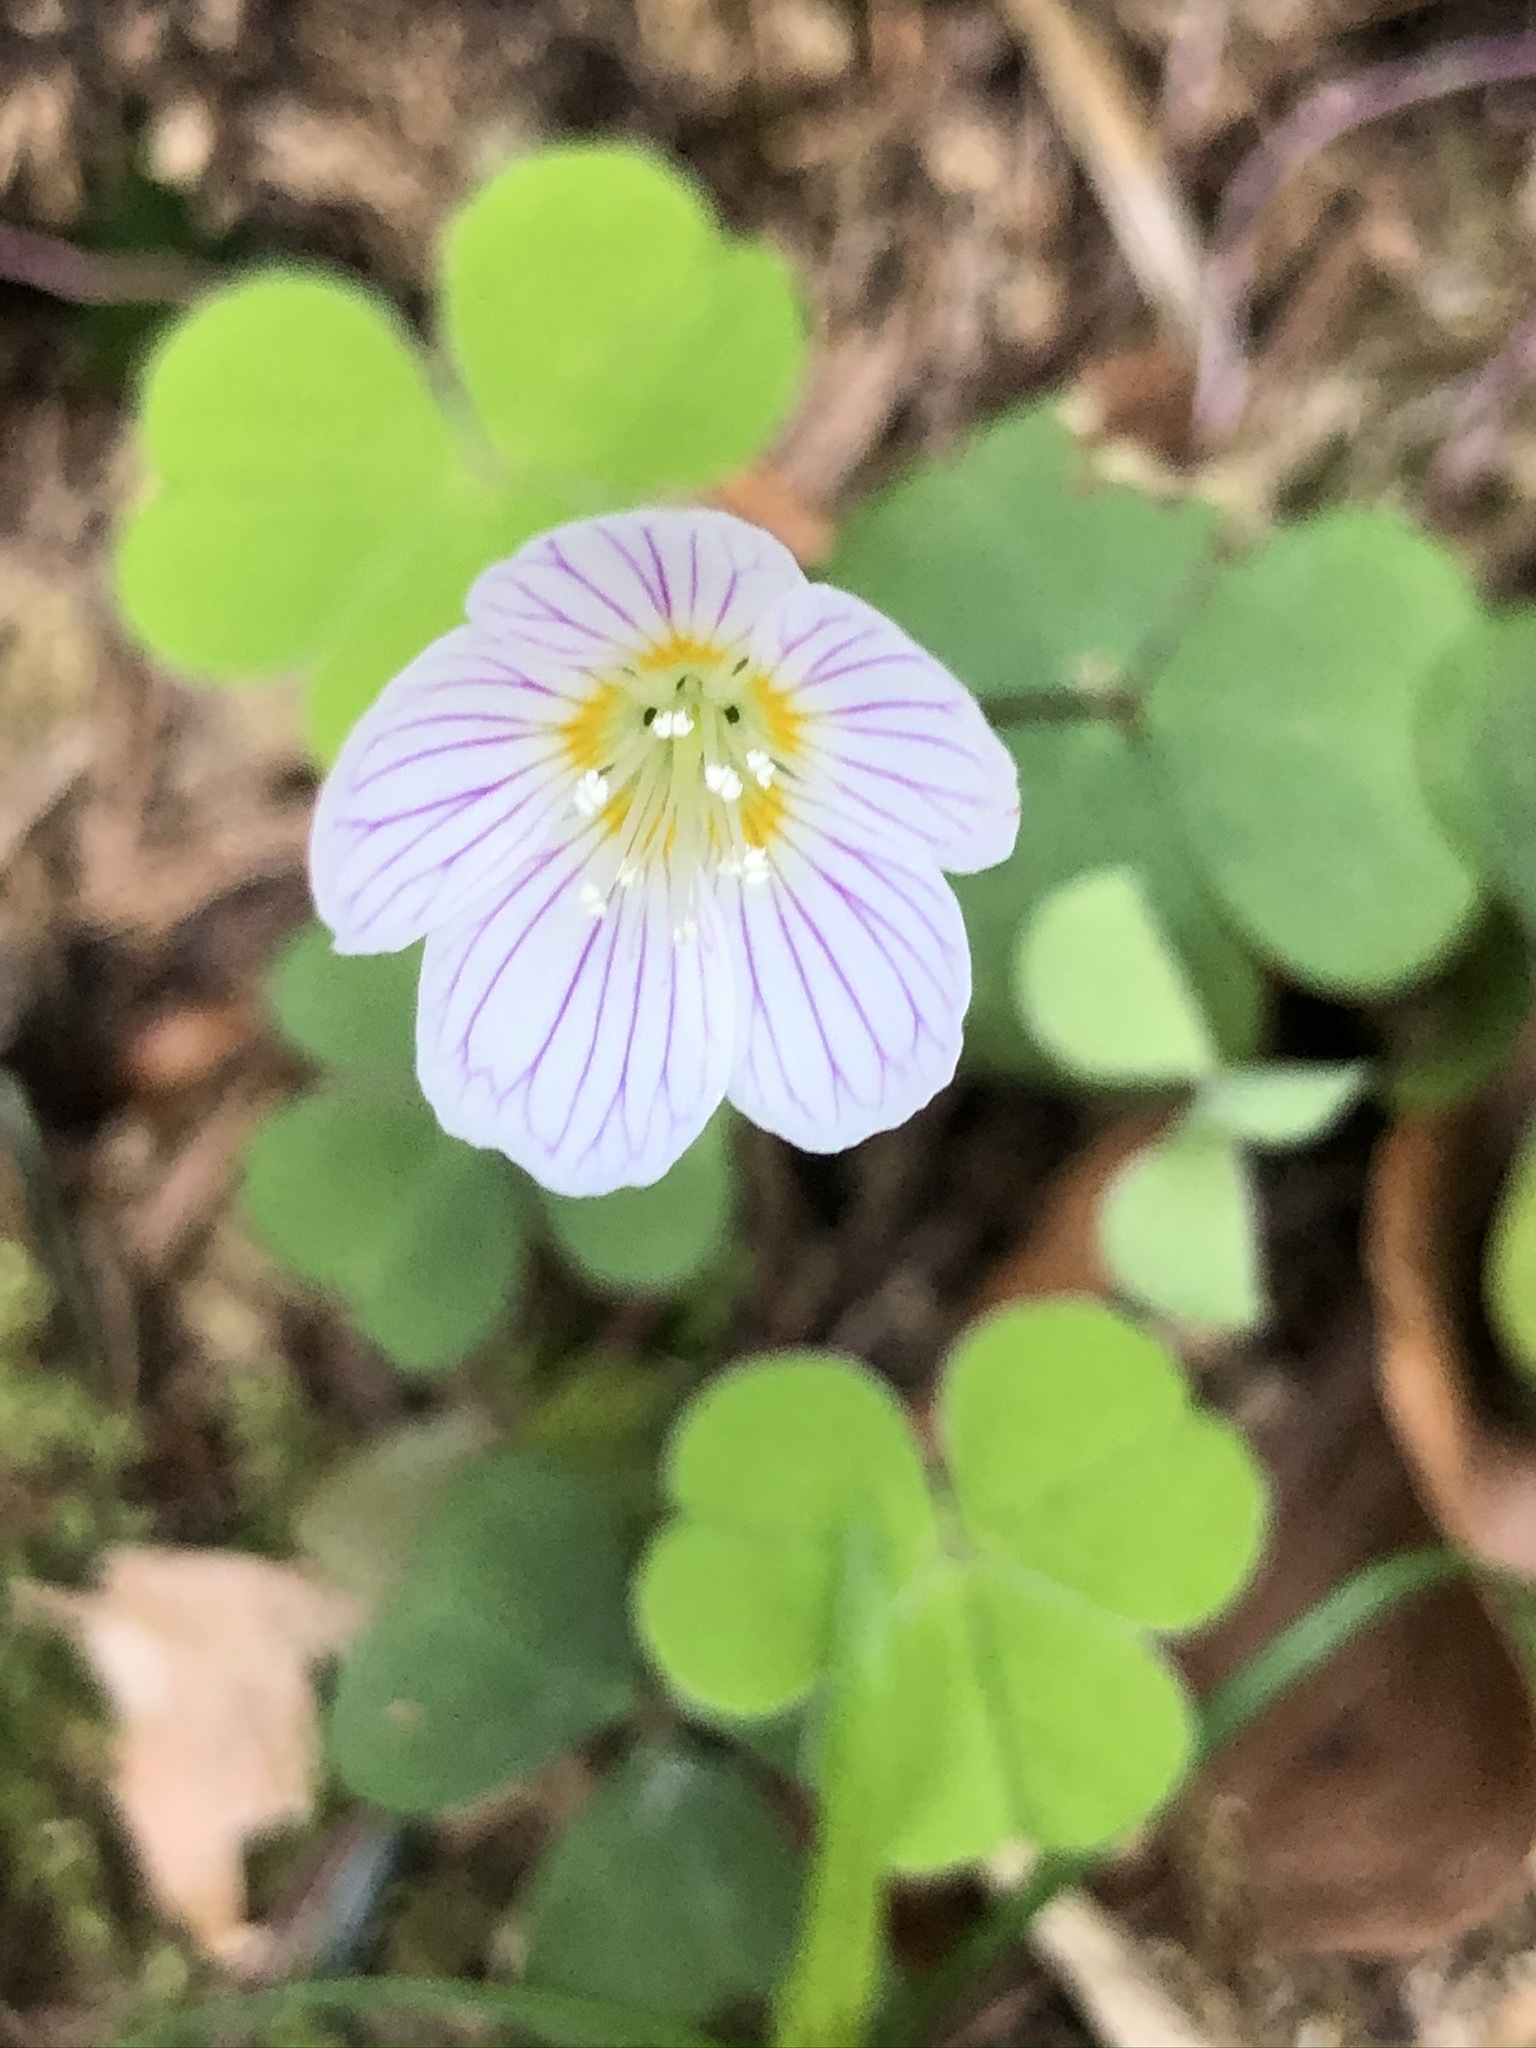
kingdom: Plantae
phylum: Tracheophyta
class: Magnoliopsida
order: Oxalidales
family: Oxalidaceae
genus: Oxalis
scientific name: Oxalis acetosella
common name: Wood-sorrel
